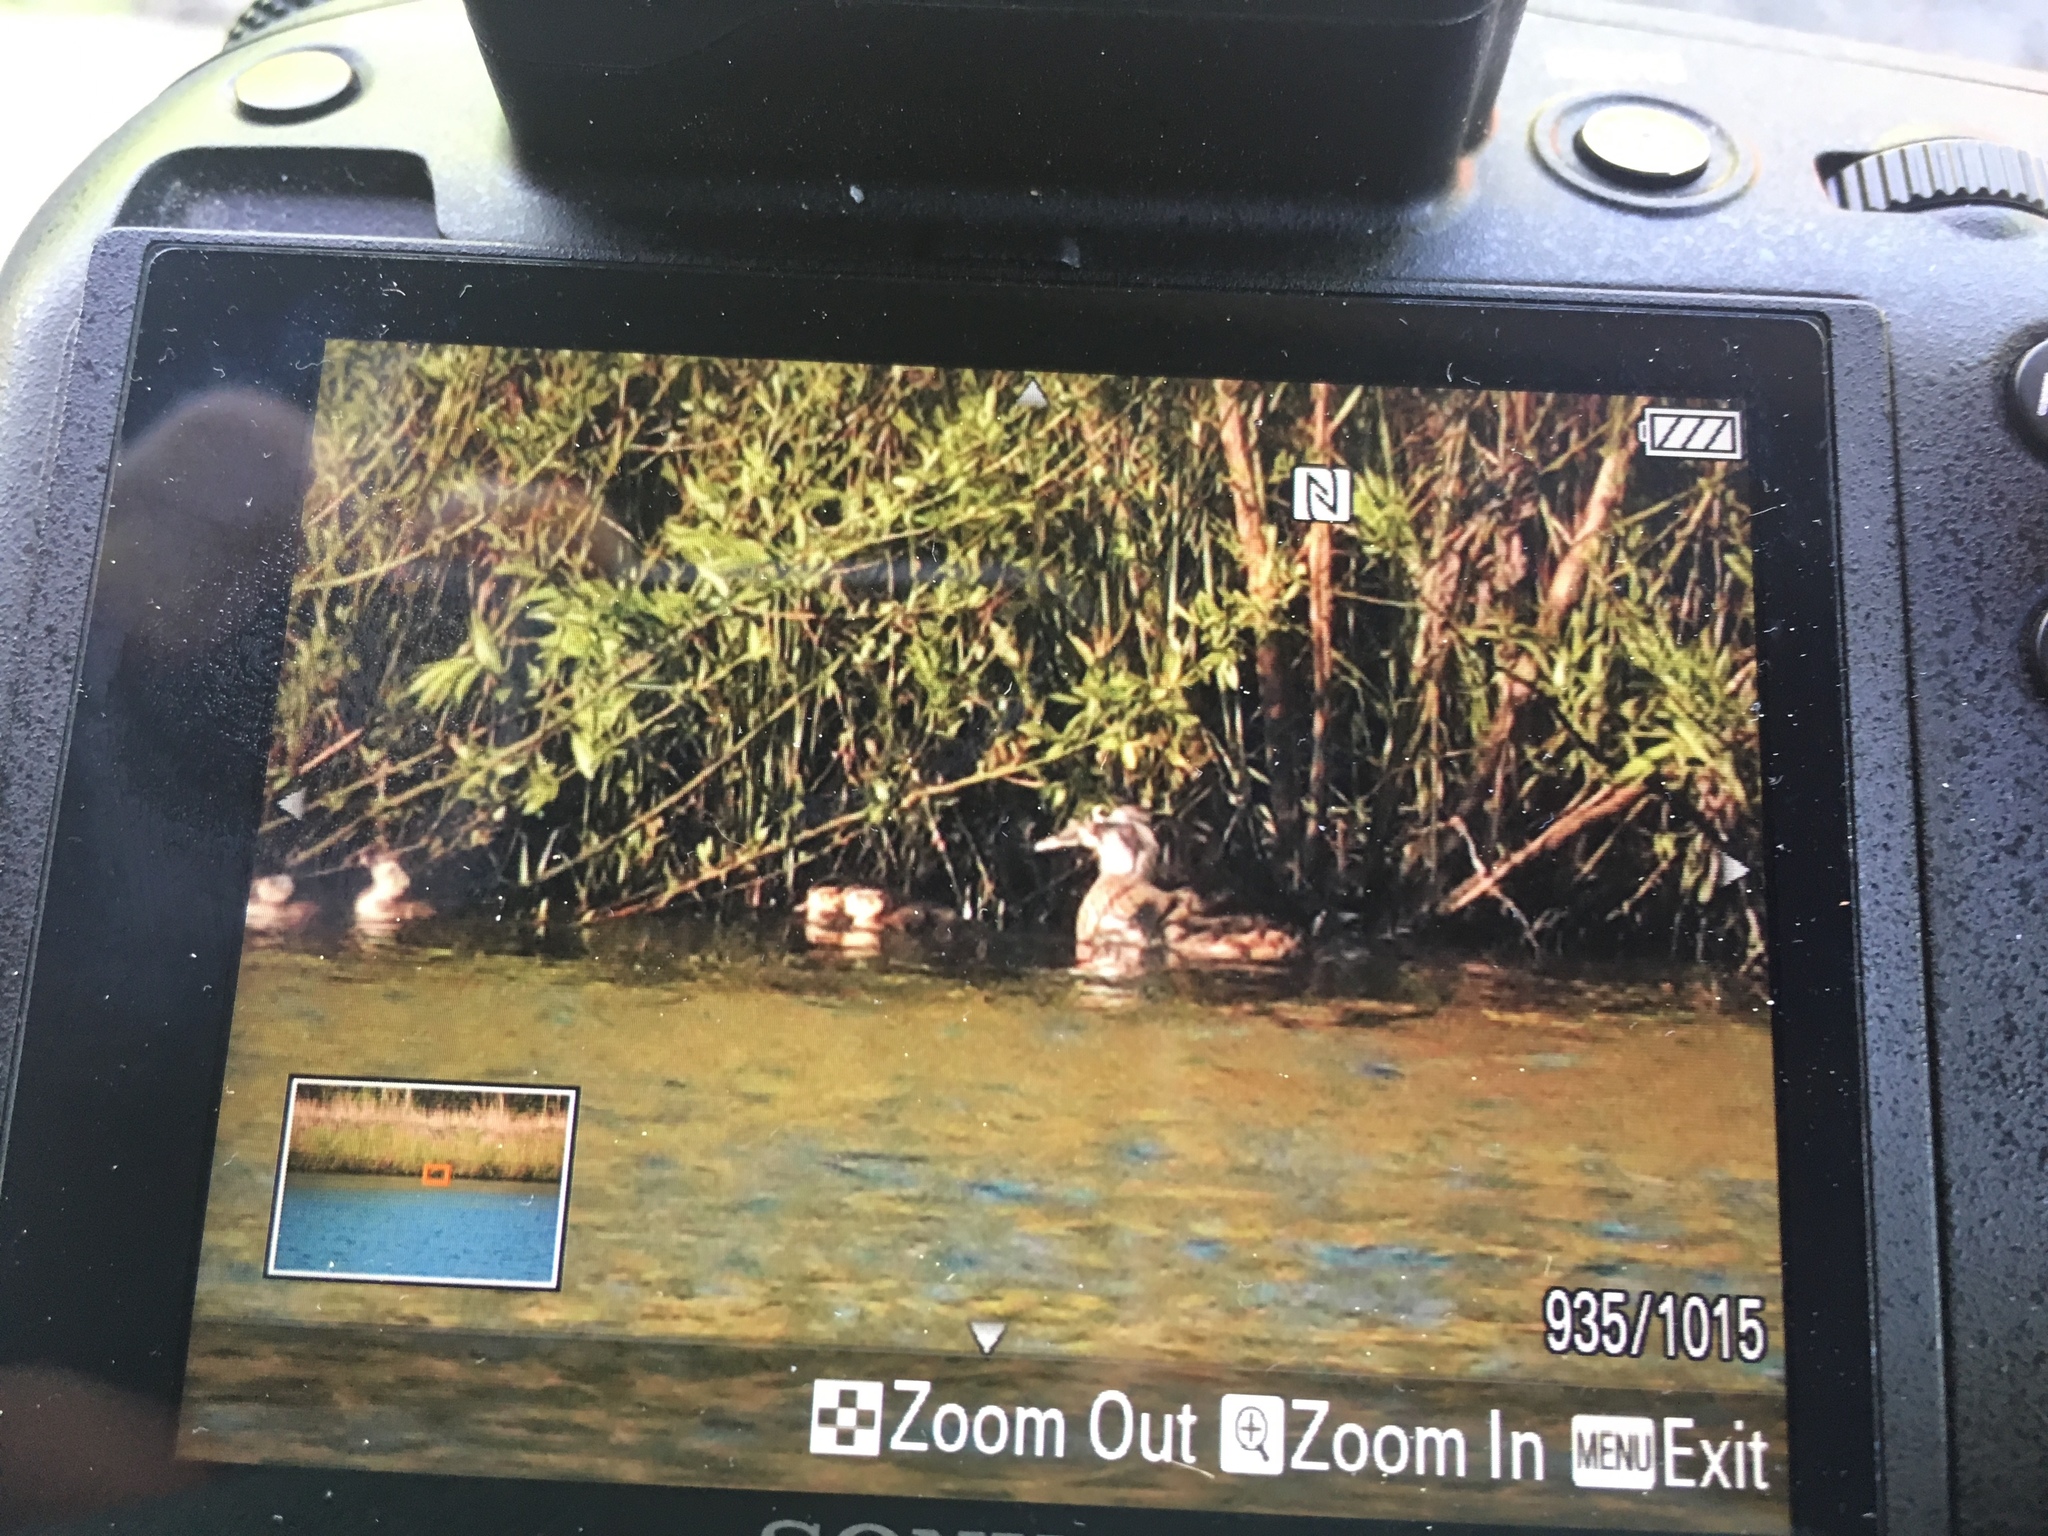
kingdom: Animalia
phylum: Chordata
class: Aves
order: Anseriformes
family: Anatidae
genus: Aix
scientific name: Aix sponsa
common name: Wood duck
